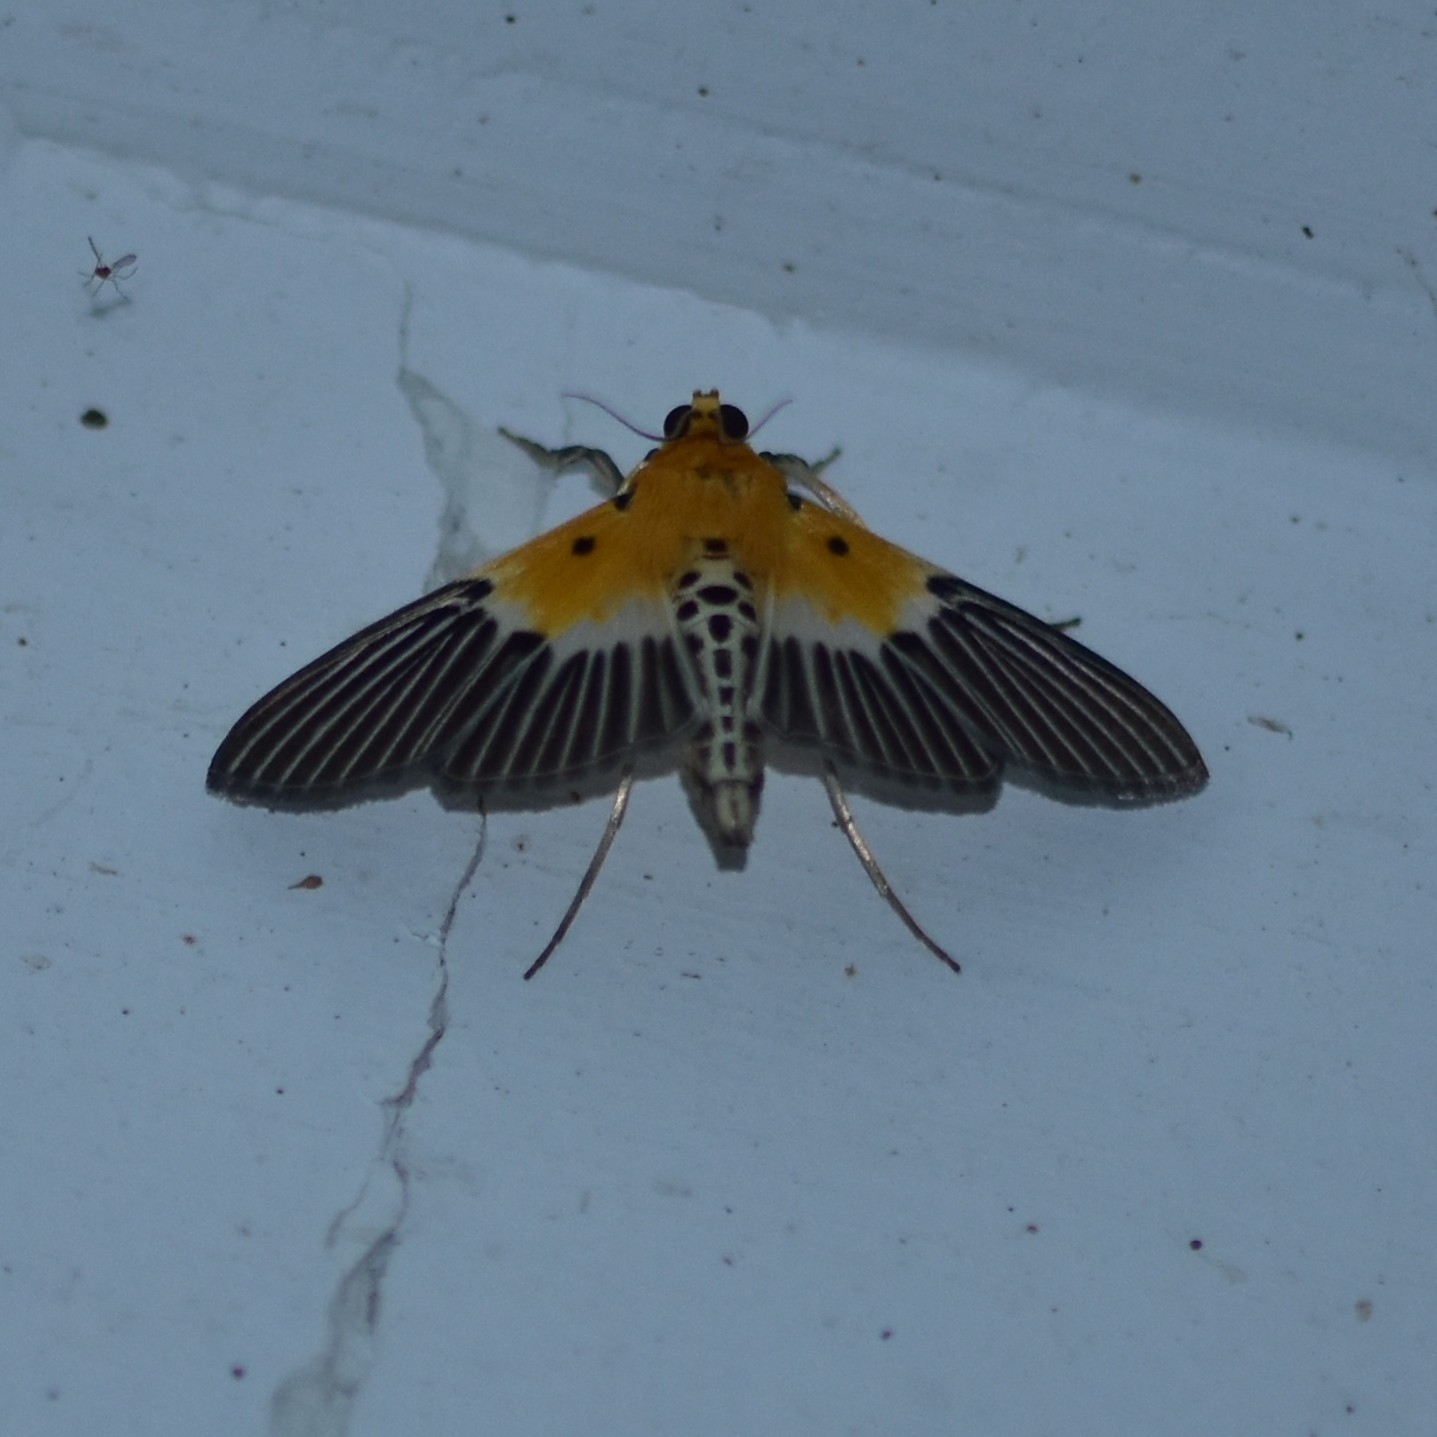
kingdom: Animalia
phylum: Arthropoda
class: Insecta
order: Lepidoptera
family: Crambidae
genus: Nevrina
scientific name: Nevrina procopia
